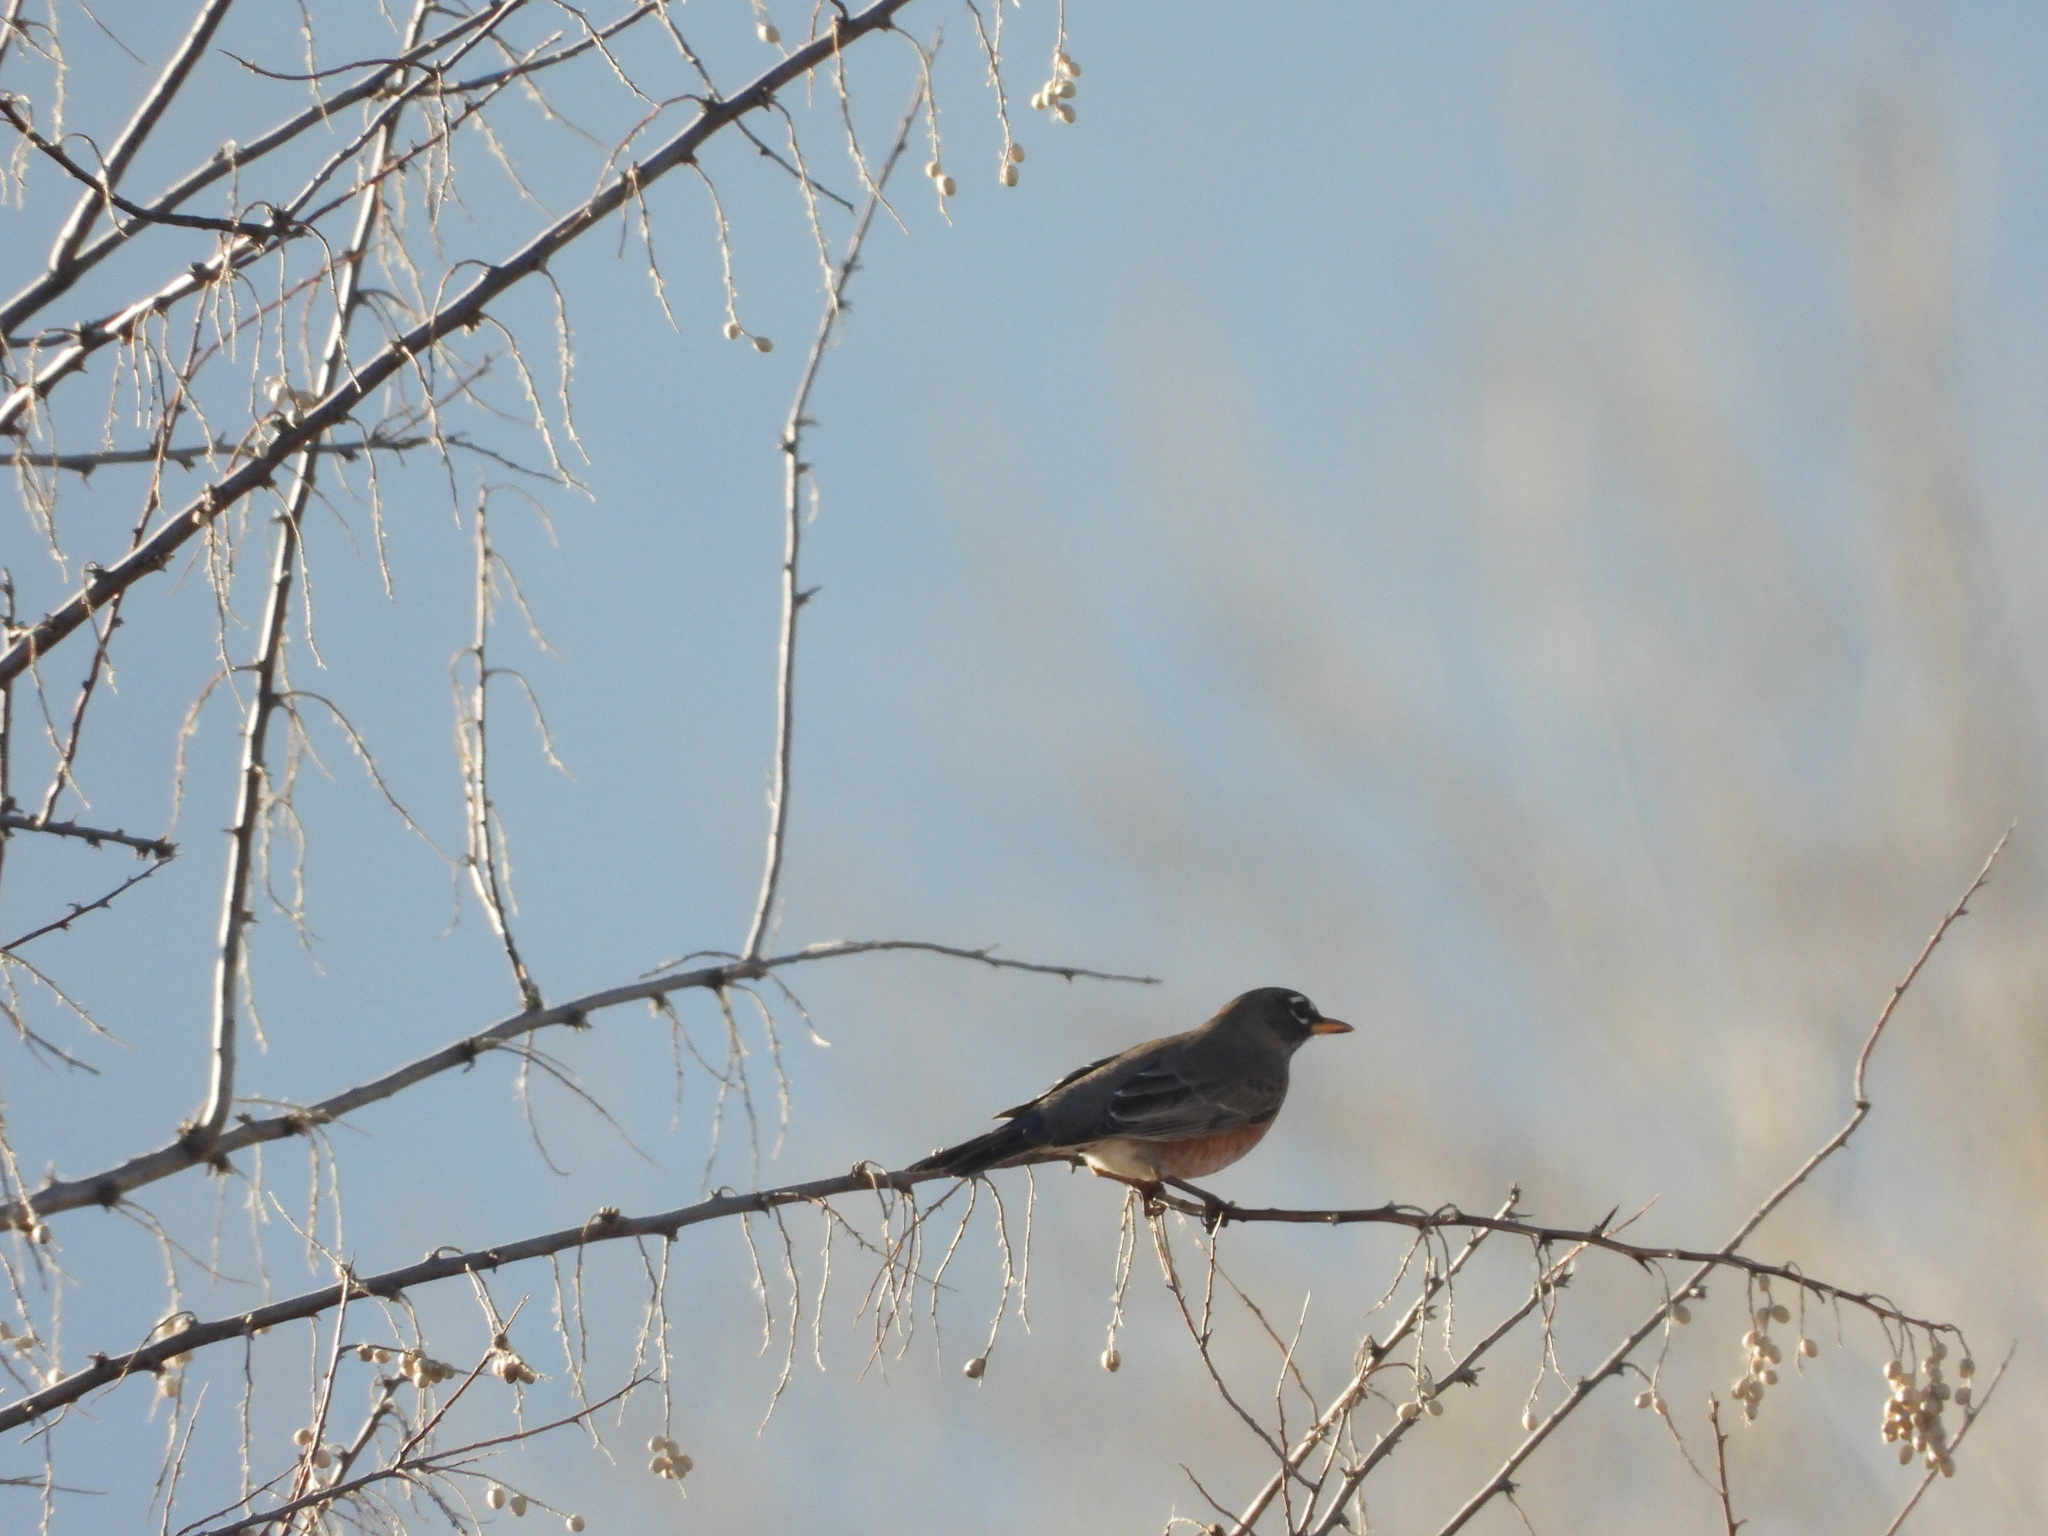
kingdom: Animalia
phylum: Chordata
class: Aves
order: Passeriformes
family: Turdidae
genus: Turdus
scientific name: Turdus migratorius
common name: American robin
